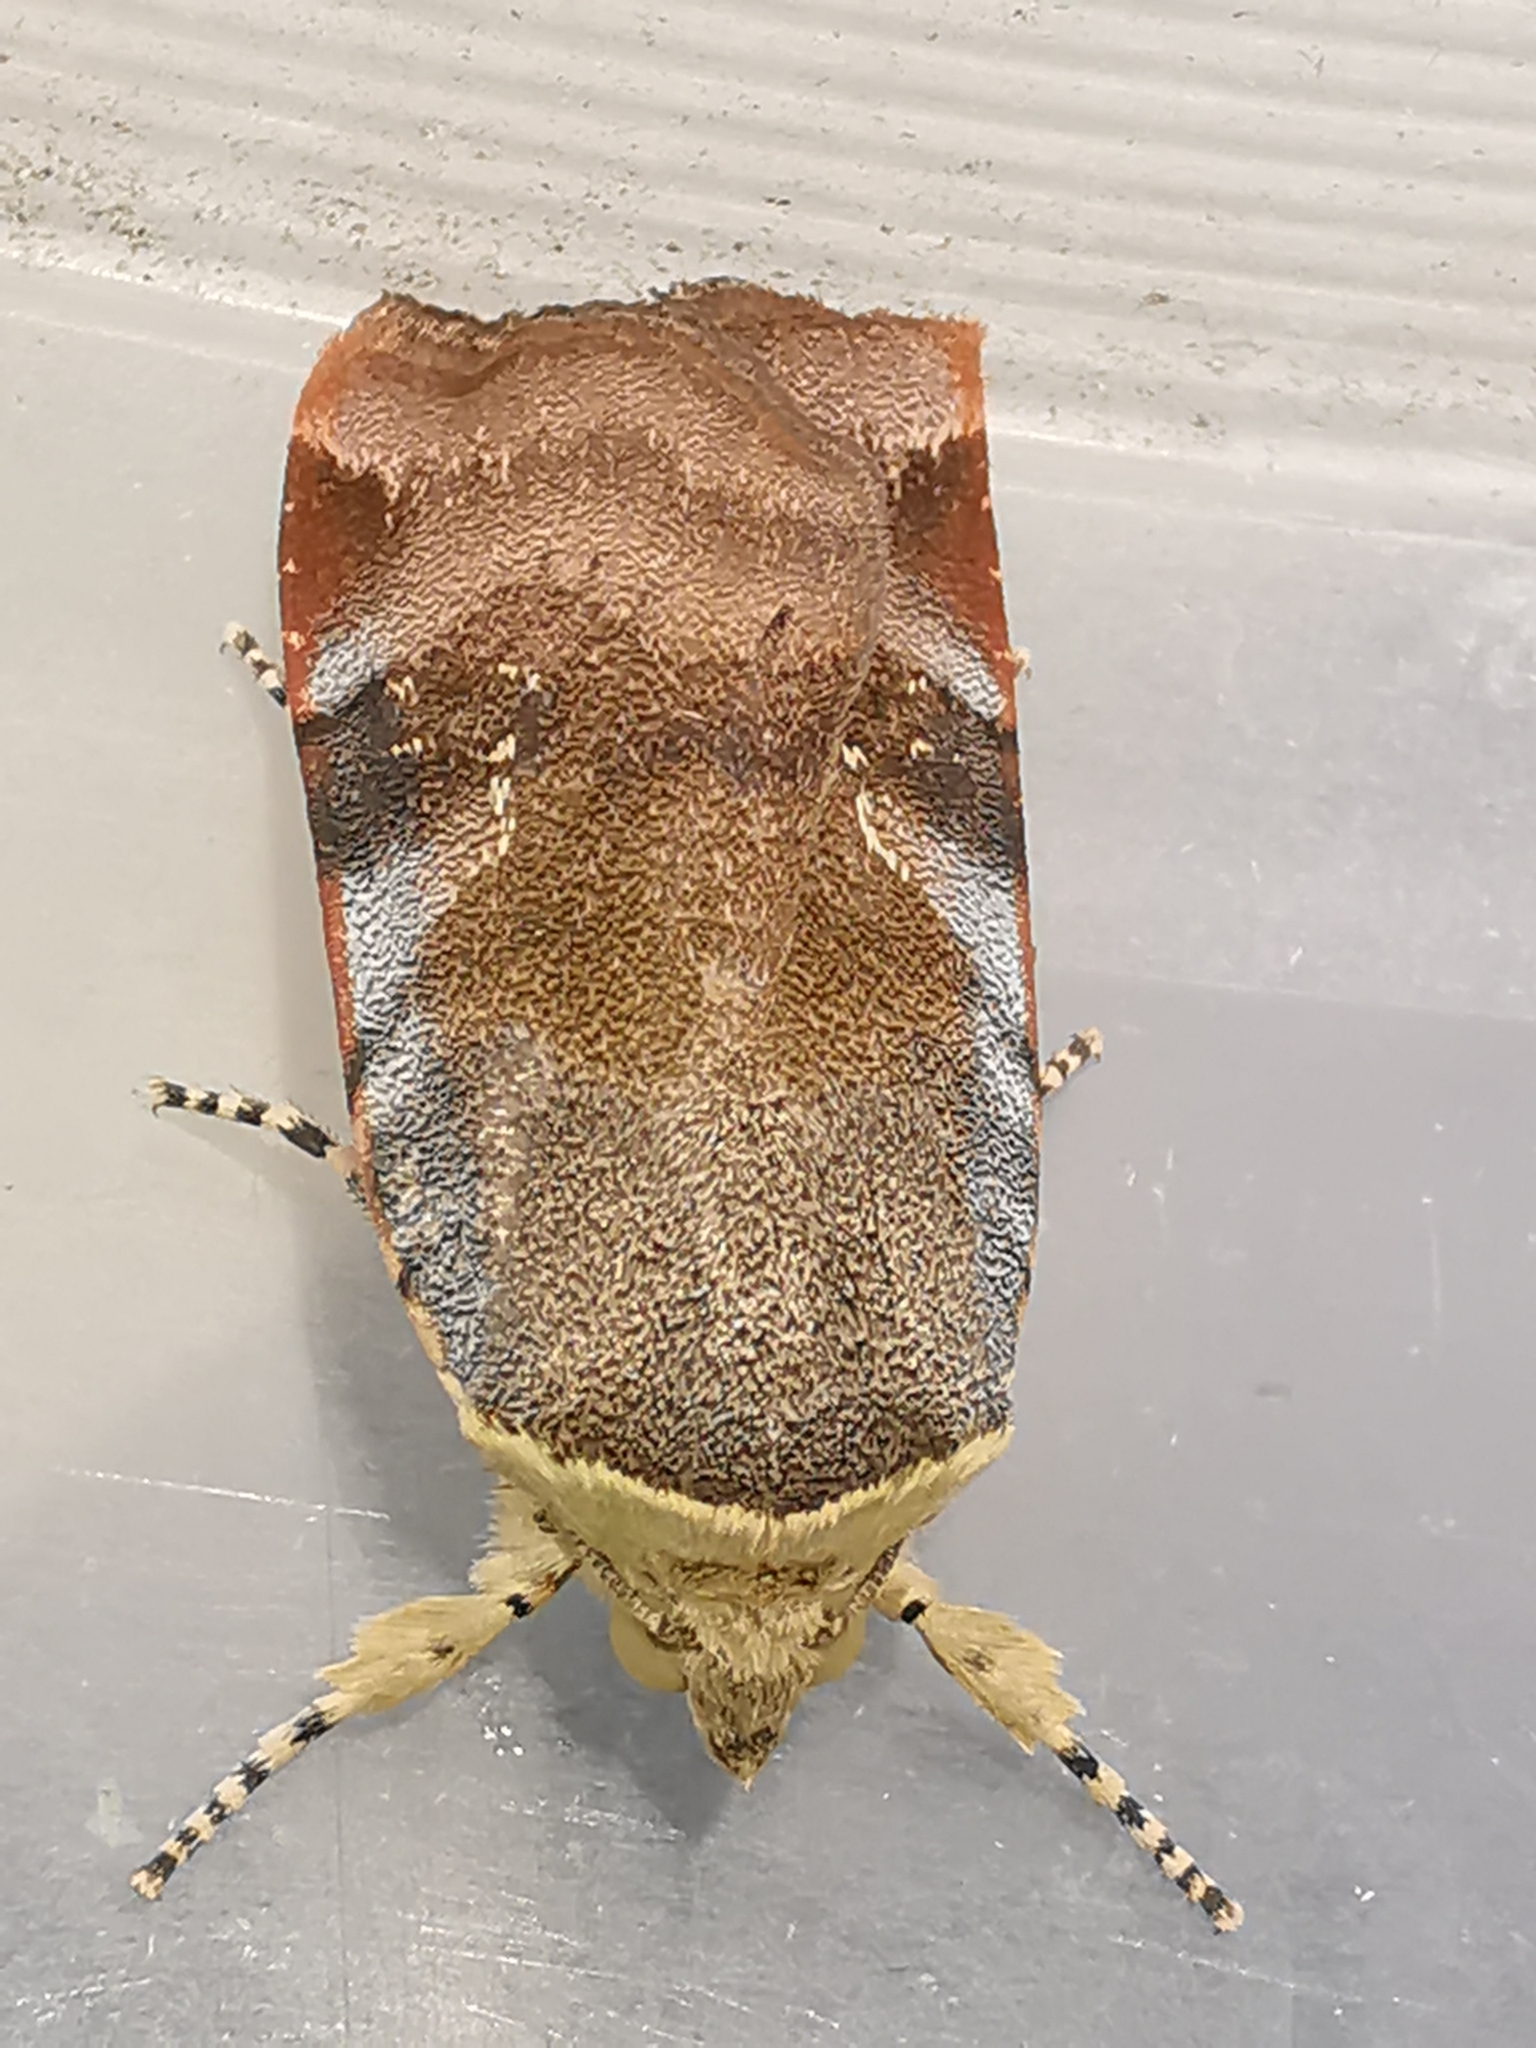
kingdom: Animalia
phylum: Arthropoda
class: Insecta
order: Lepidoptera
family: Noctuidae
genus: Noctua
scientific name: Noctua janthe
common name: Lesser broad-bordered yellow underwing
